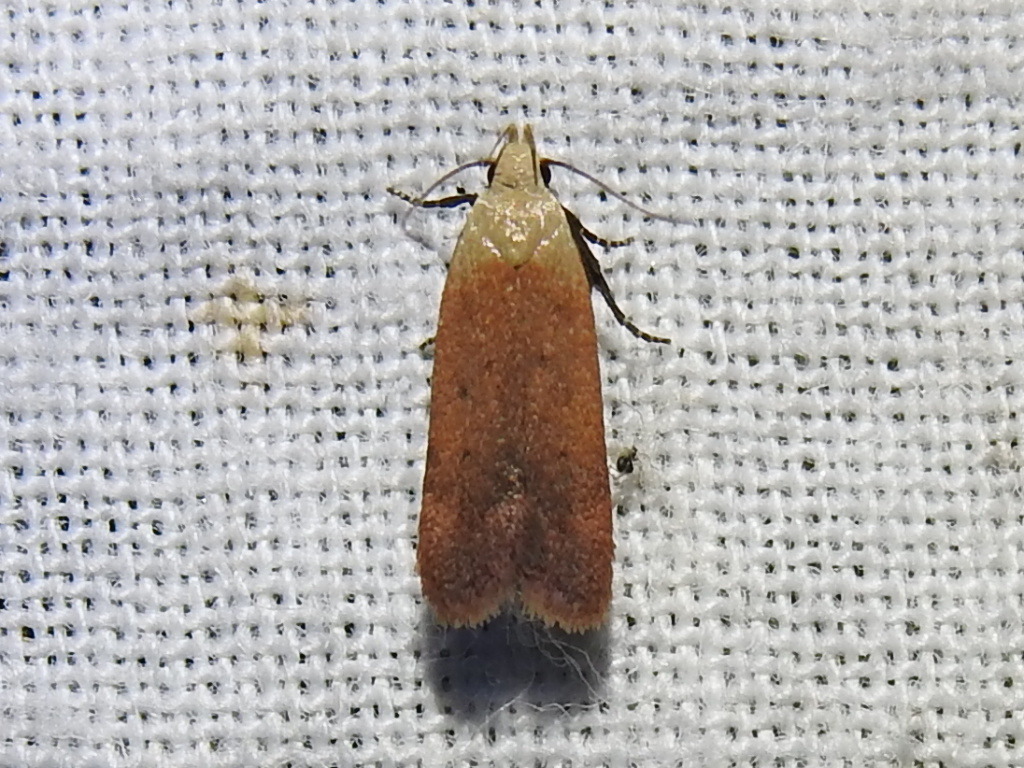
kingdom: Animalia
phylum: Arthropoda
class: Insecta
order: Lepidoptera
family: Gelechiidae
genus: Anacampsis
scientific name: Anacampsis fullonella
